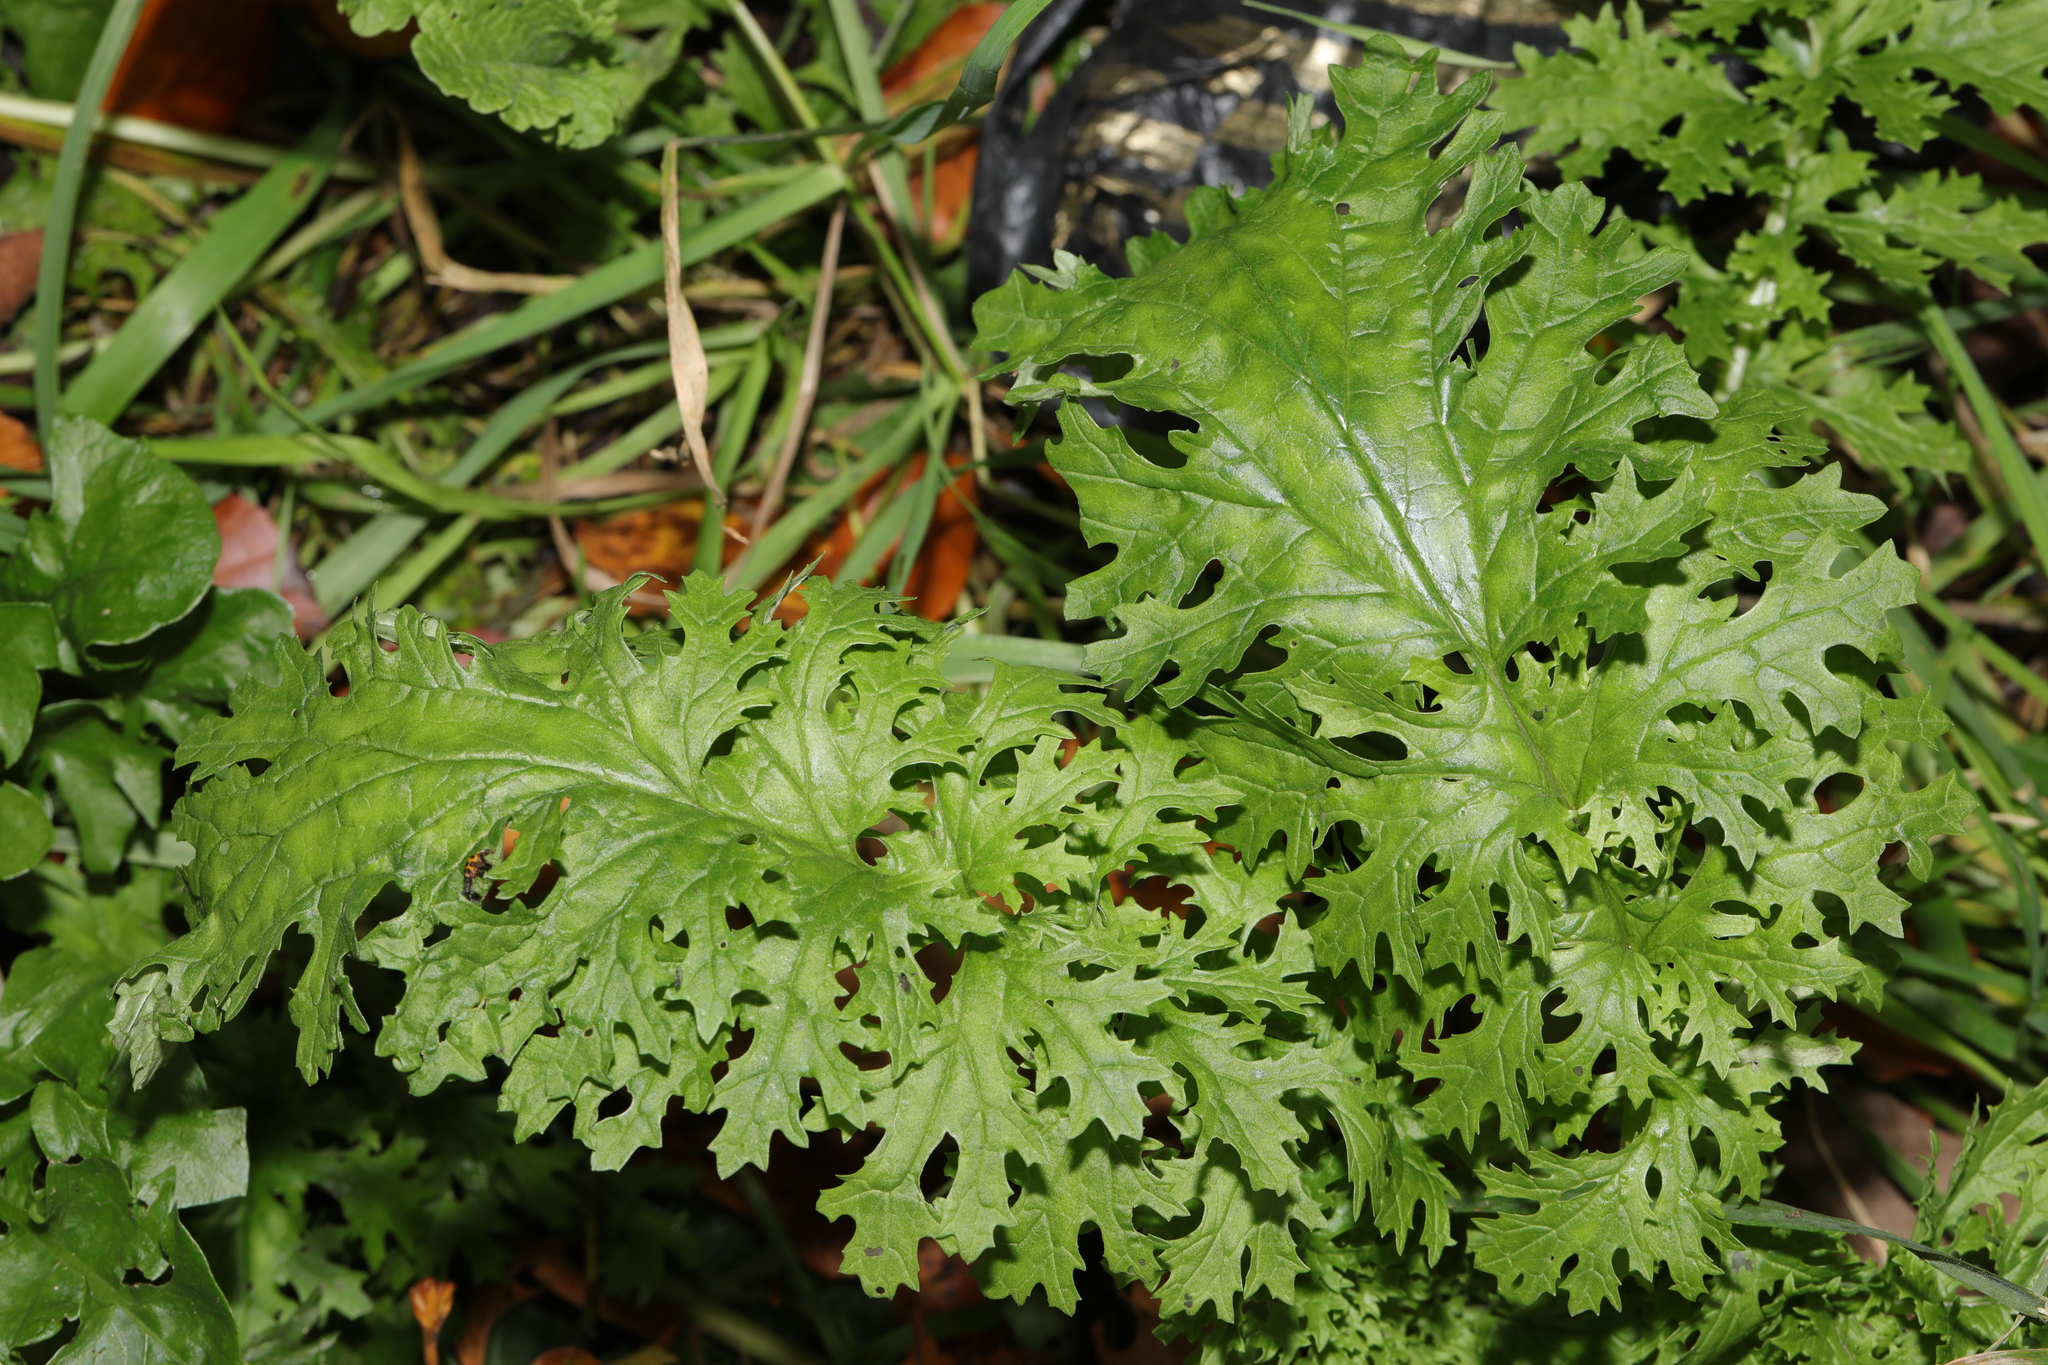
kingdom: Plantae
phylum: Tracheophyta
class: Magnoliopsida
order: Asterales
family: Asteraceae
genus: Jacobaea
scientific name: Jacobaea vulgaris
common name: Stinking willie
